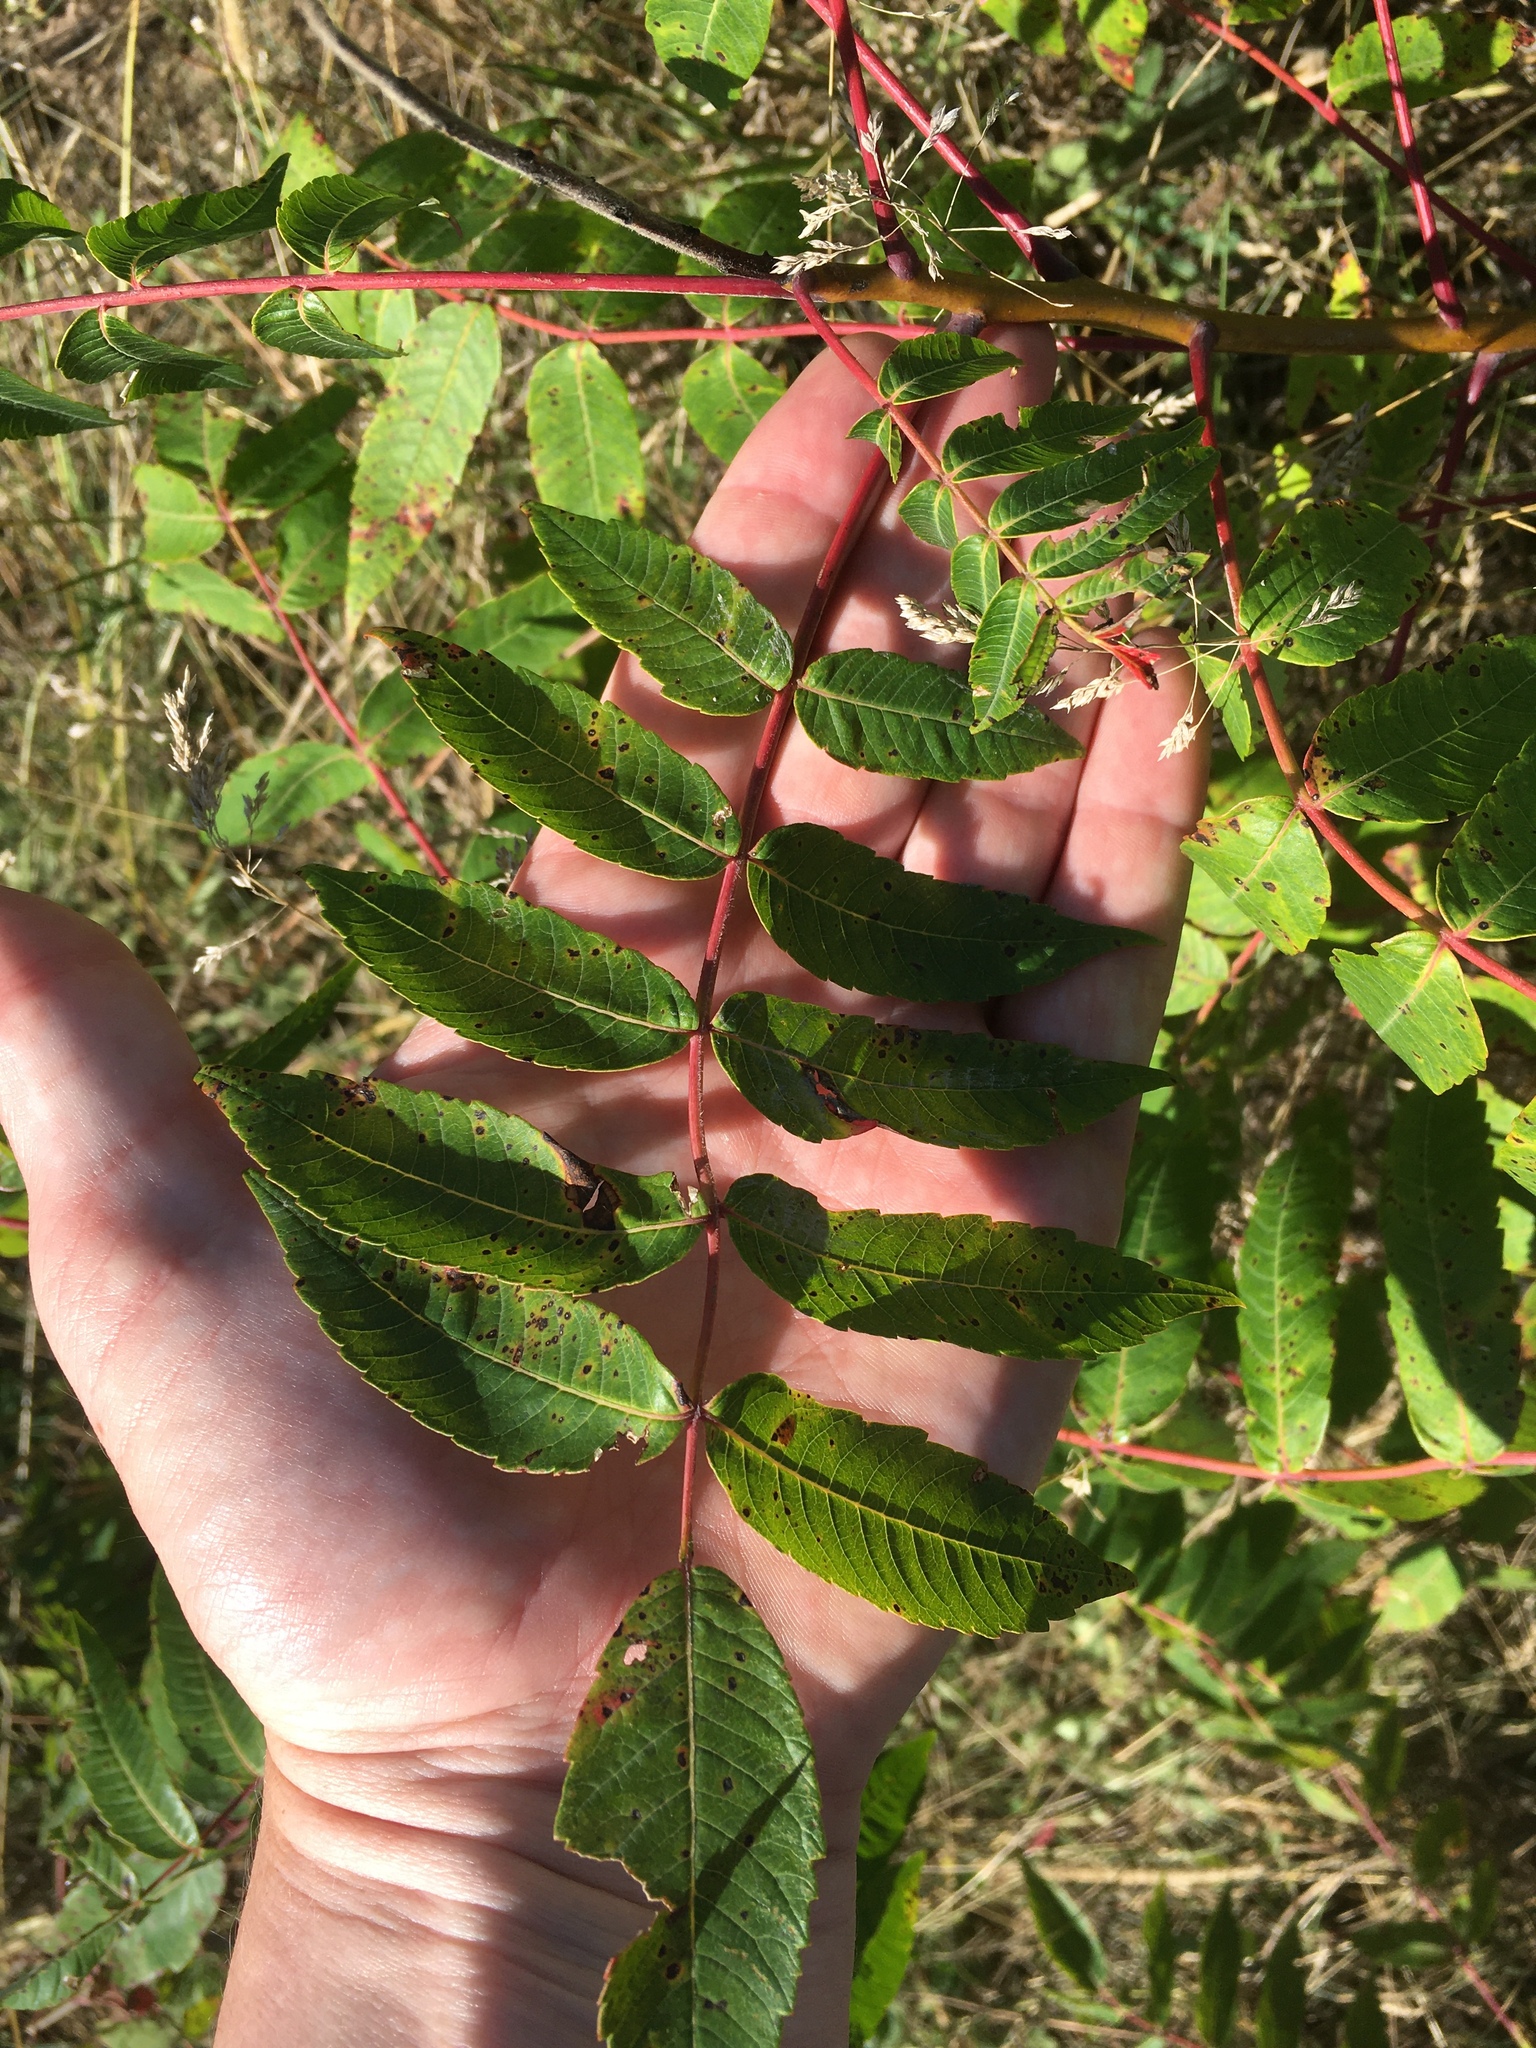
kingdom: Plantae
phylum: Tracheophyta
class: Magnoliopsida
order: Sapindales
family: Anacardiaceae
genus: Rhus
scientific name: Rhus glabra
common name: Scarlet sumac
